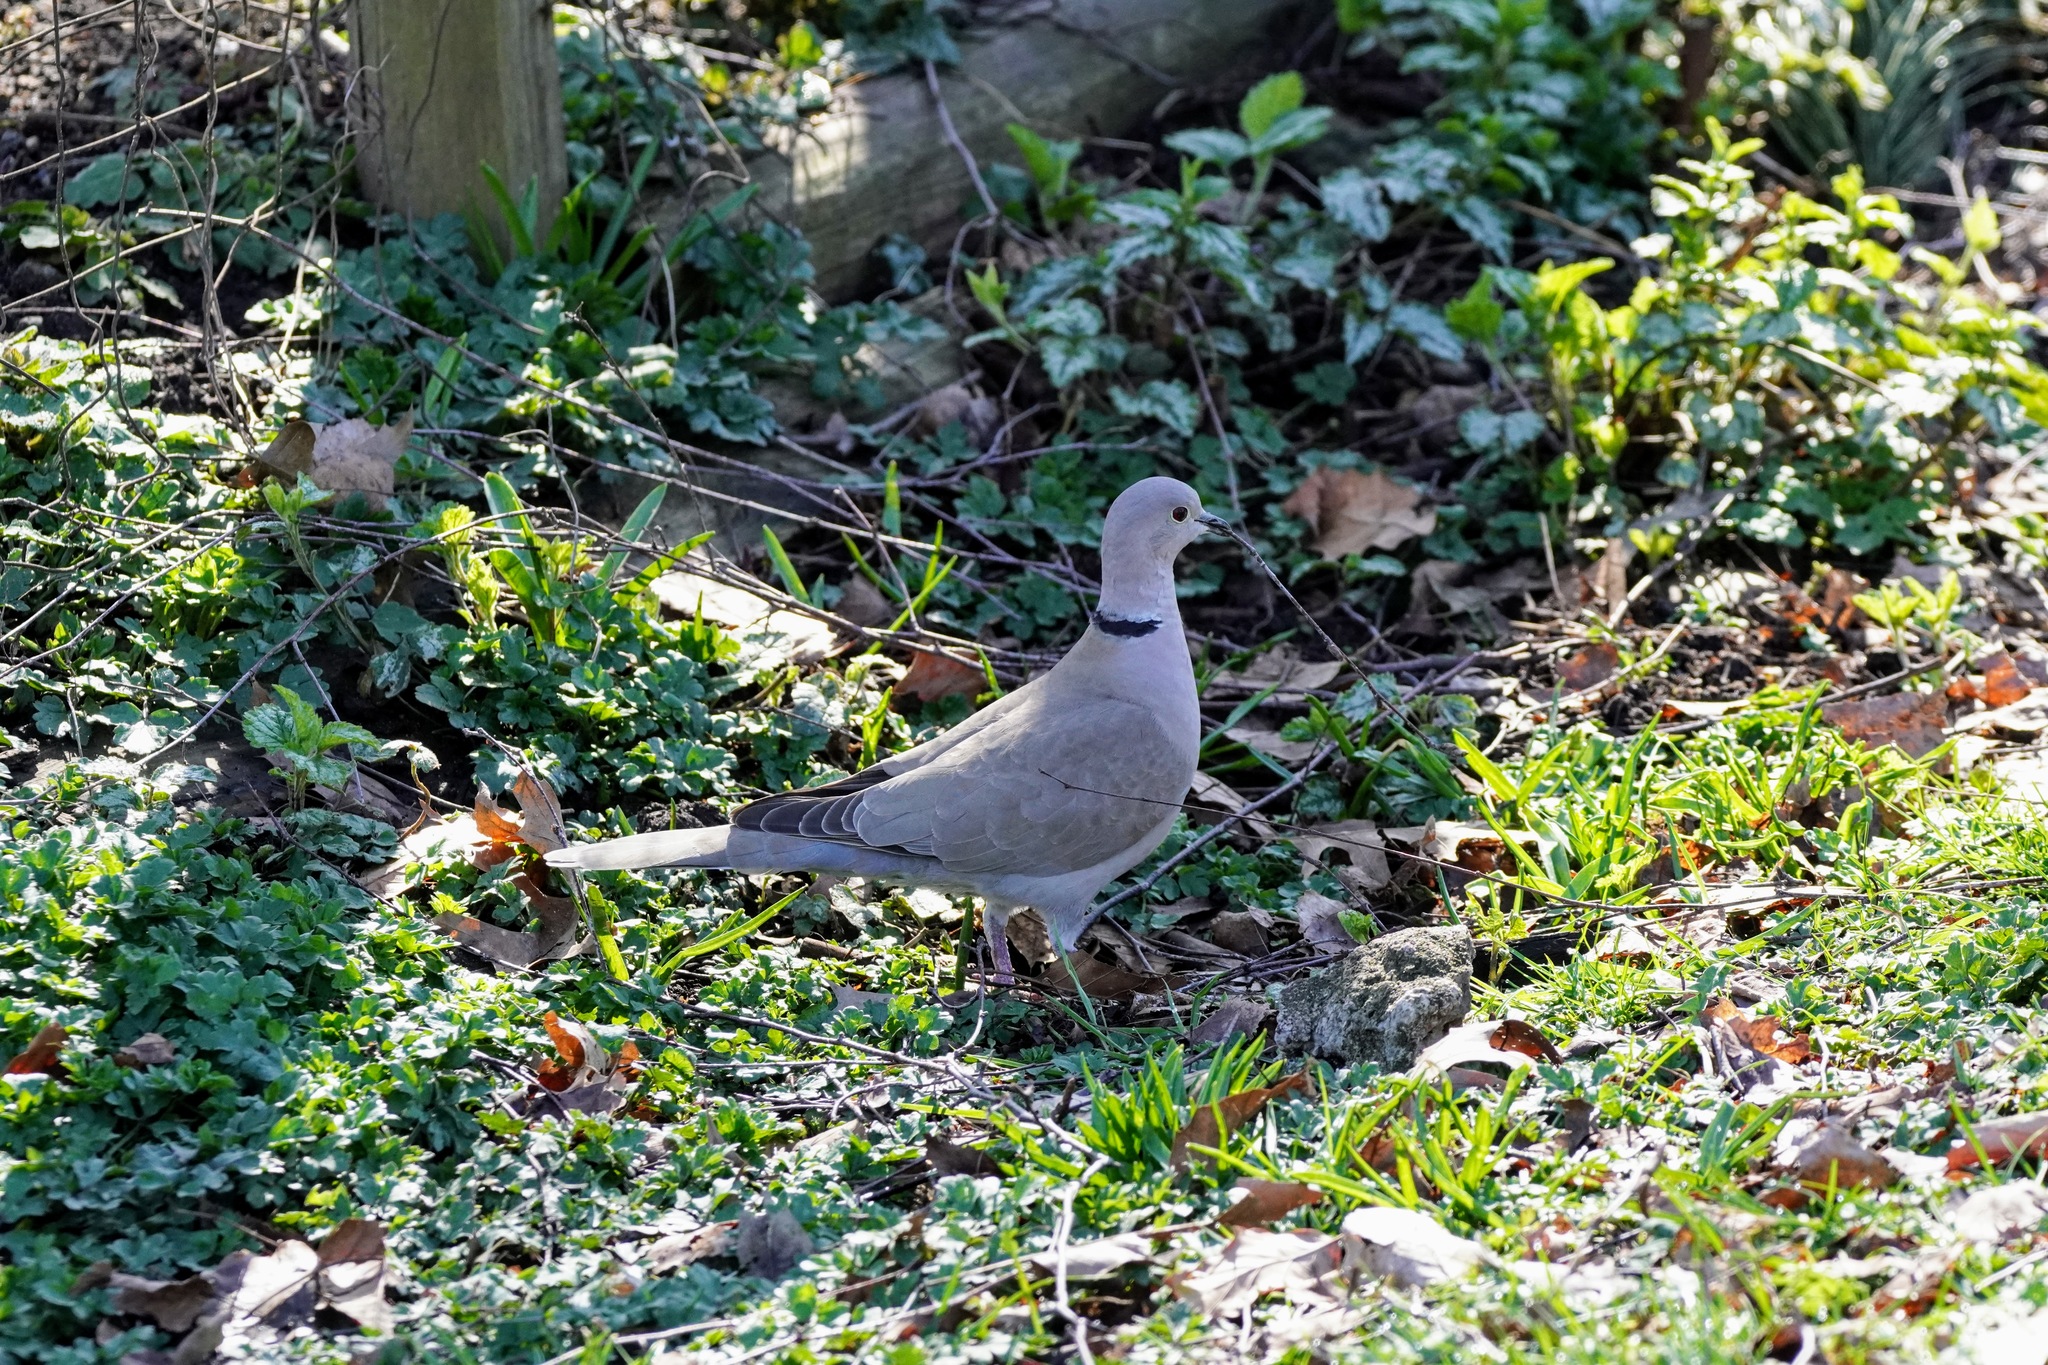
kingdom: Animalia
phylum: Chordata
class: Aves
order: Columbiformes
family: Columbidae
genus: Streptopelia
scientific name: Streptopelia decaocto
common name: Eurasian collared dove
